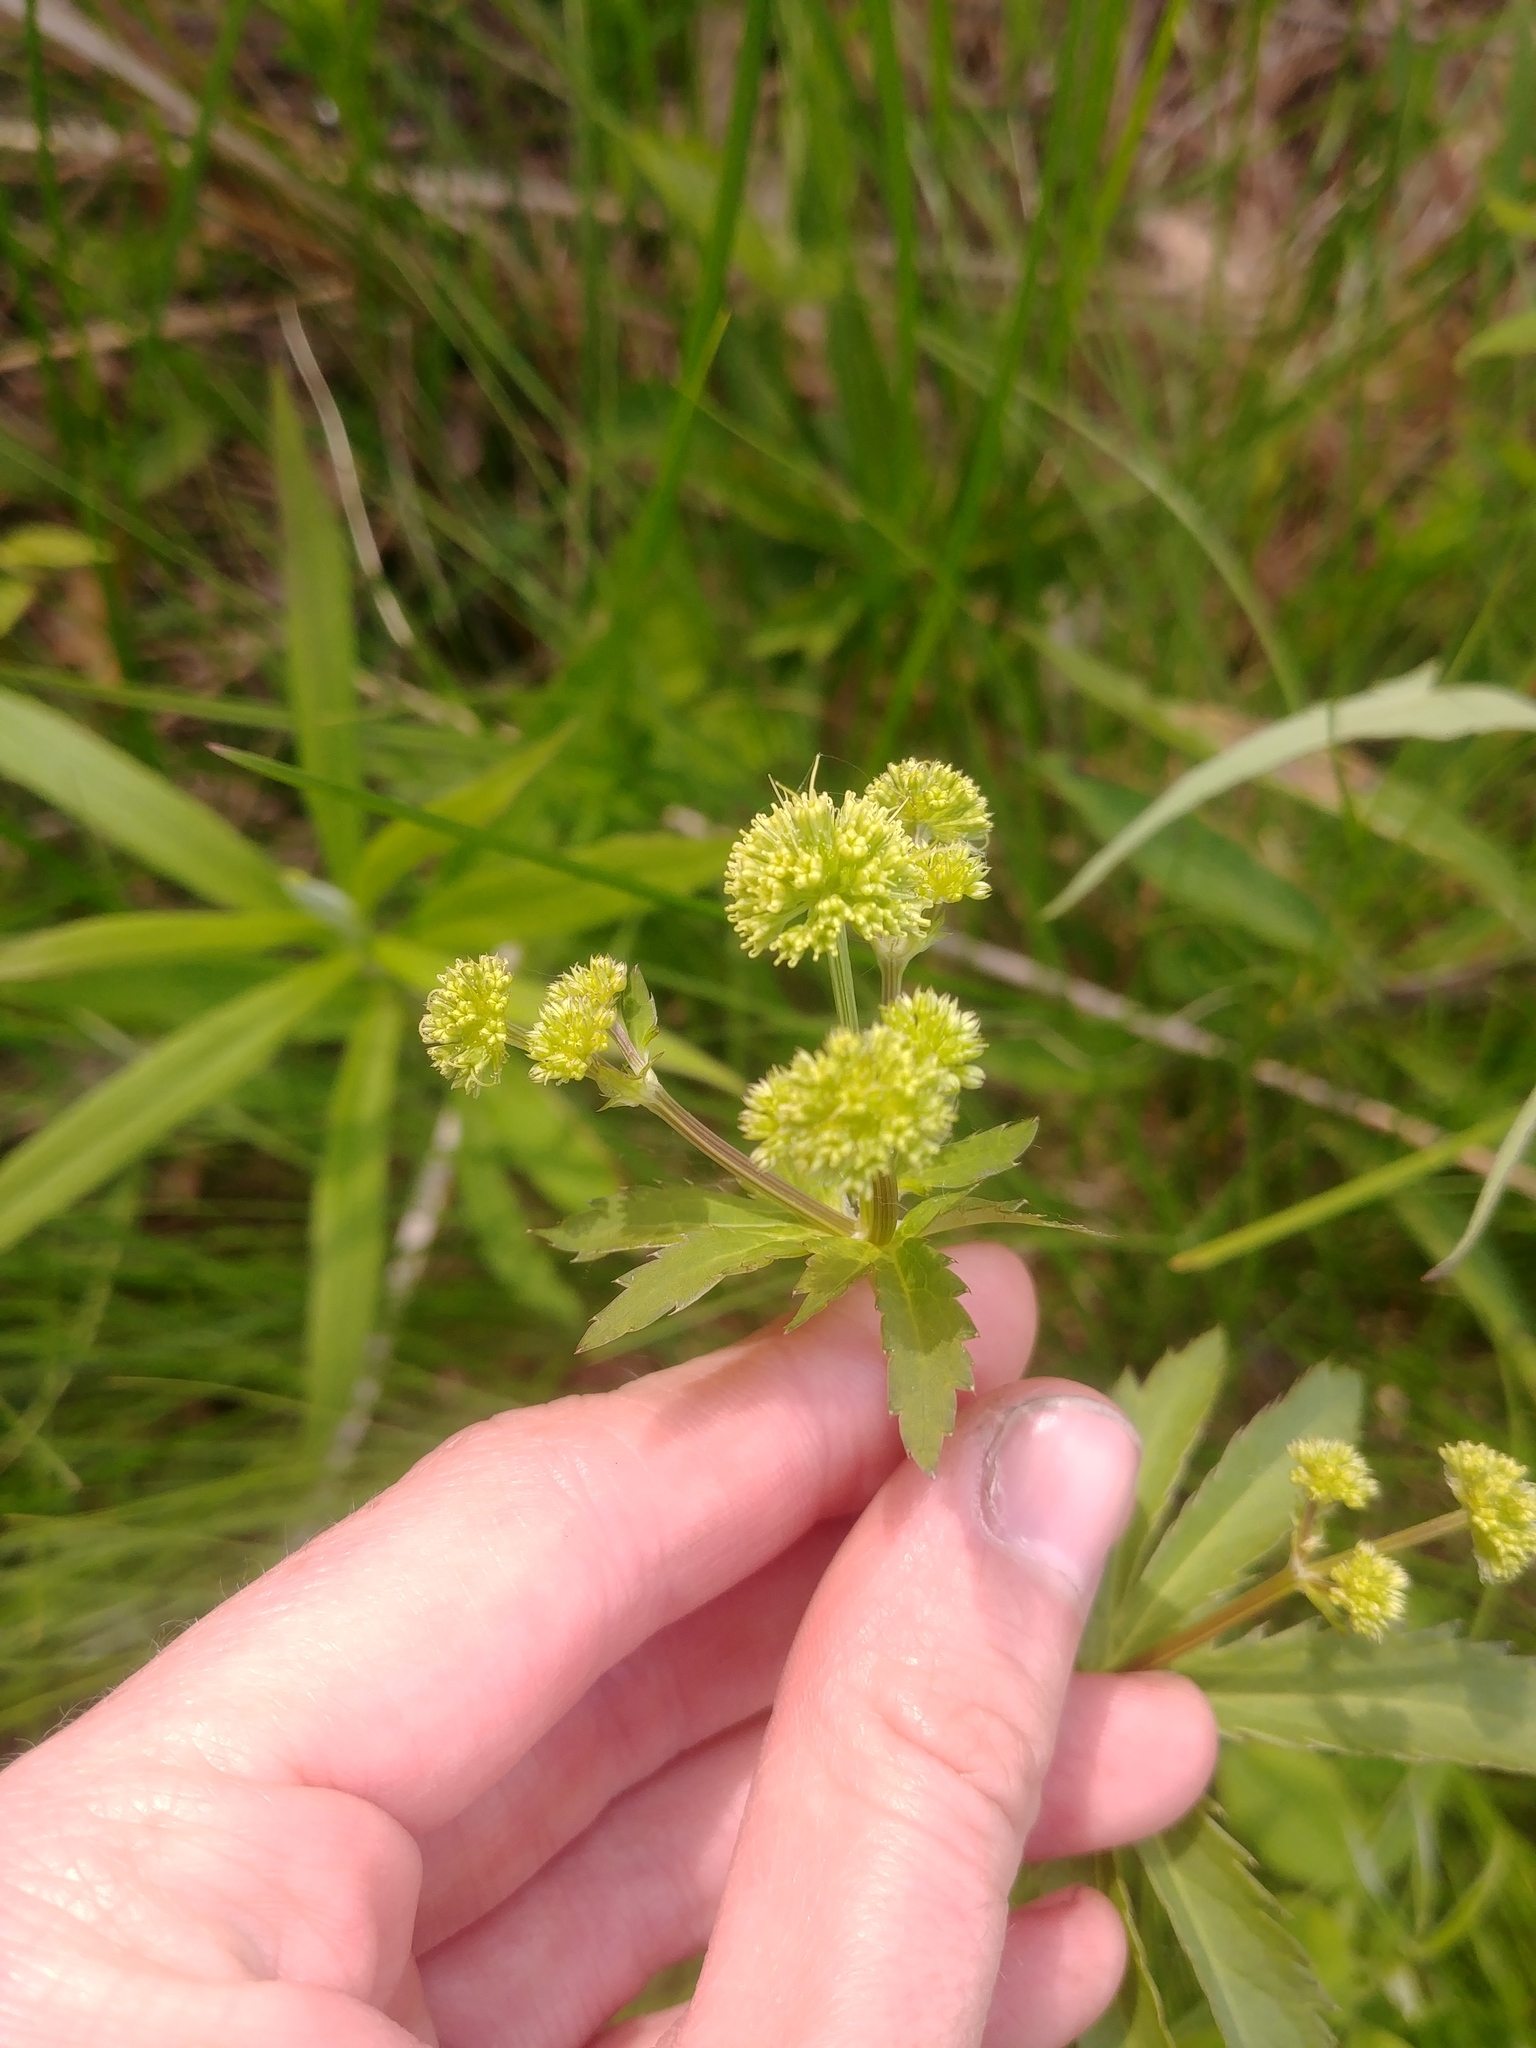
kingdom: Plantae
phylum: Tracheophyta
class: Magnoliopsida
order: Apiales
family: Apiaceae
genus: Sanicula
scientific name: Sanicula marilandica
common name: Black snakeroot
